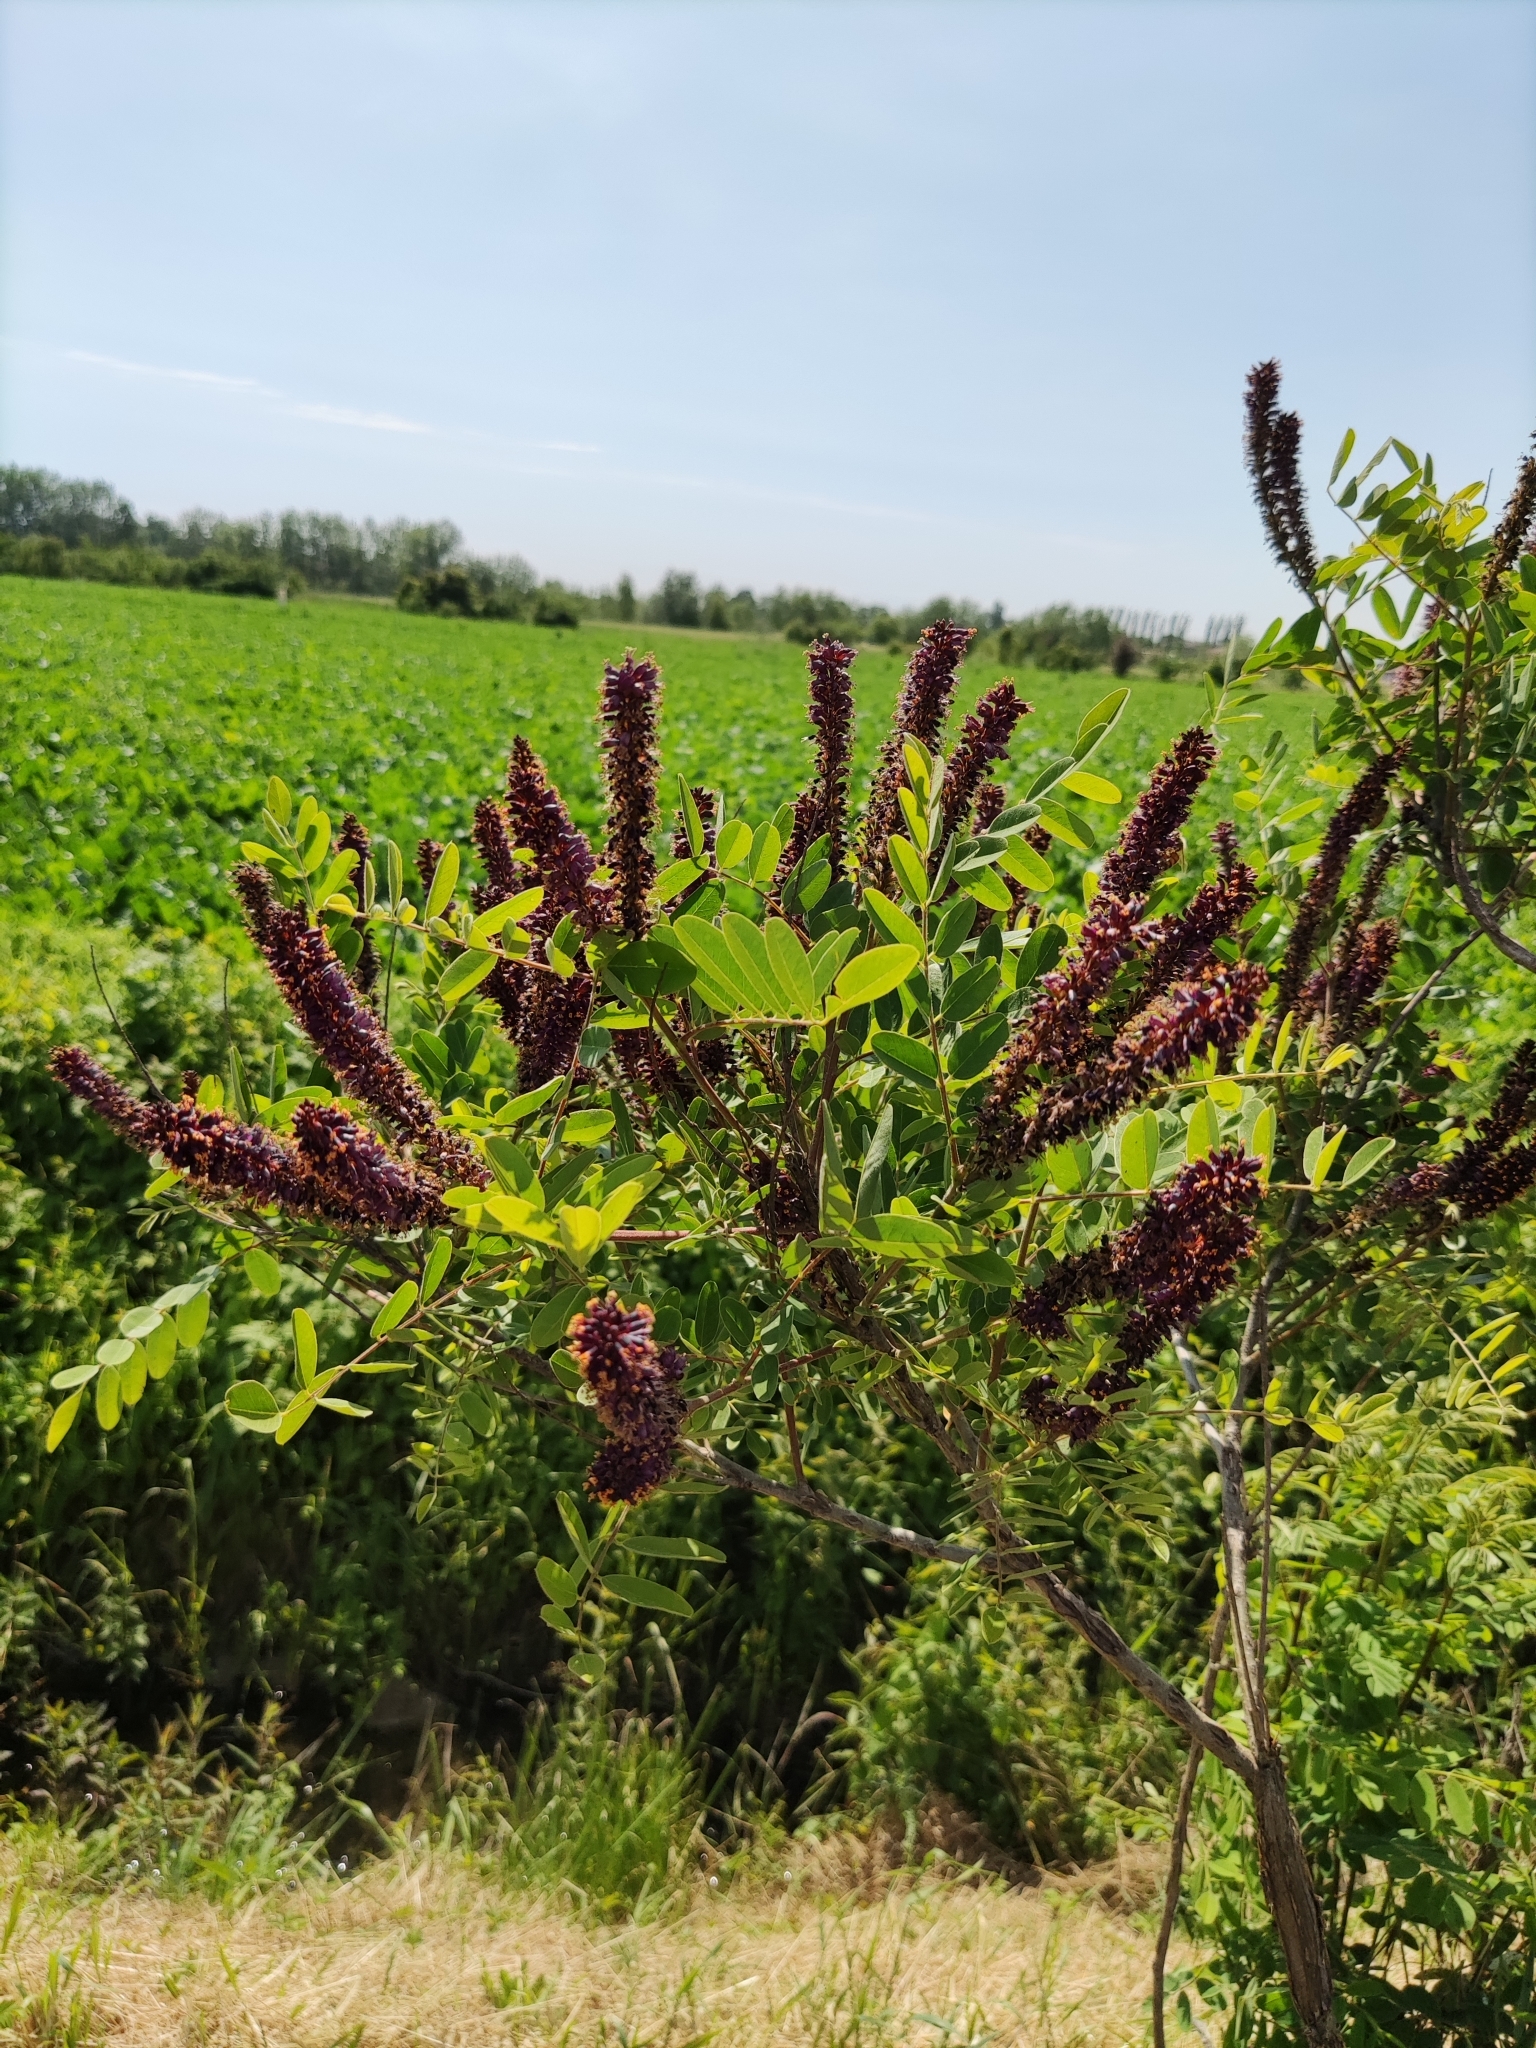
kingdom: Plantae
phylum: Tracheophyta
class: Magnoliopsida
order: Fabales
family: Fabaceae
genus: Amorpha
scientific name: Amorpha fruticosa
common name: False indigo
